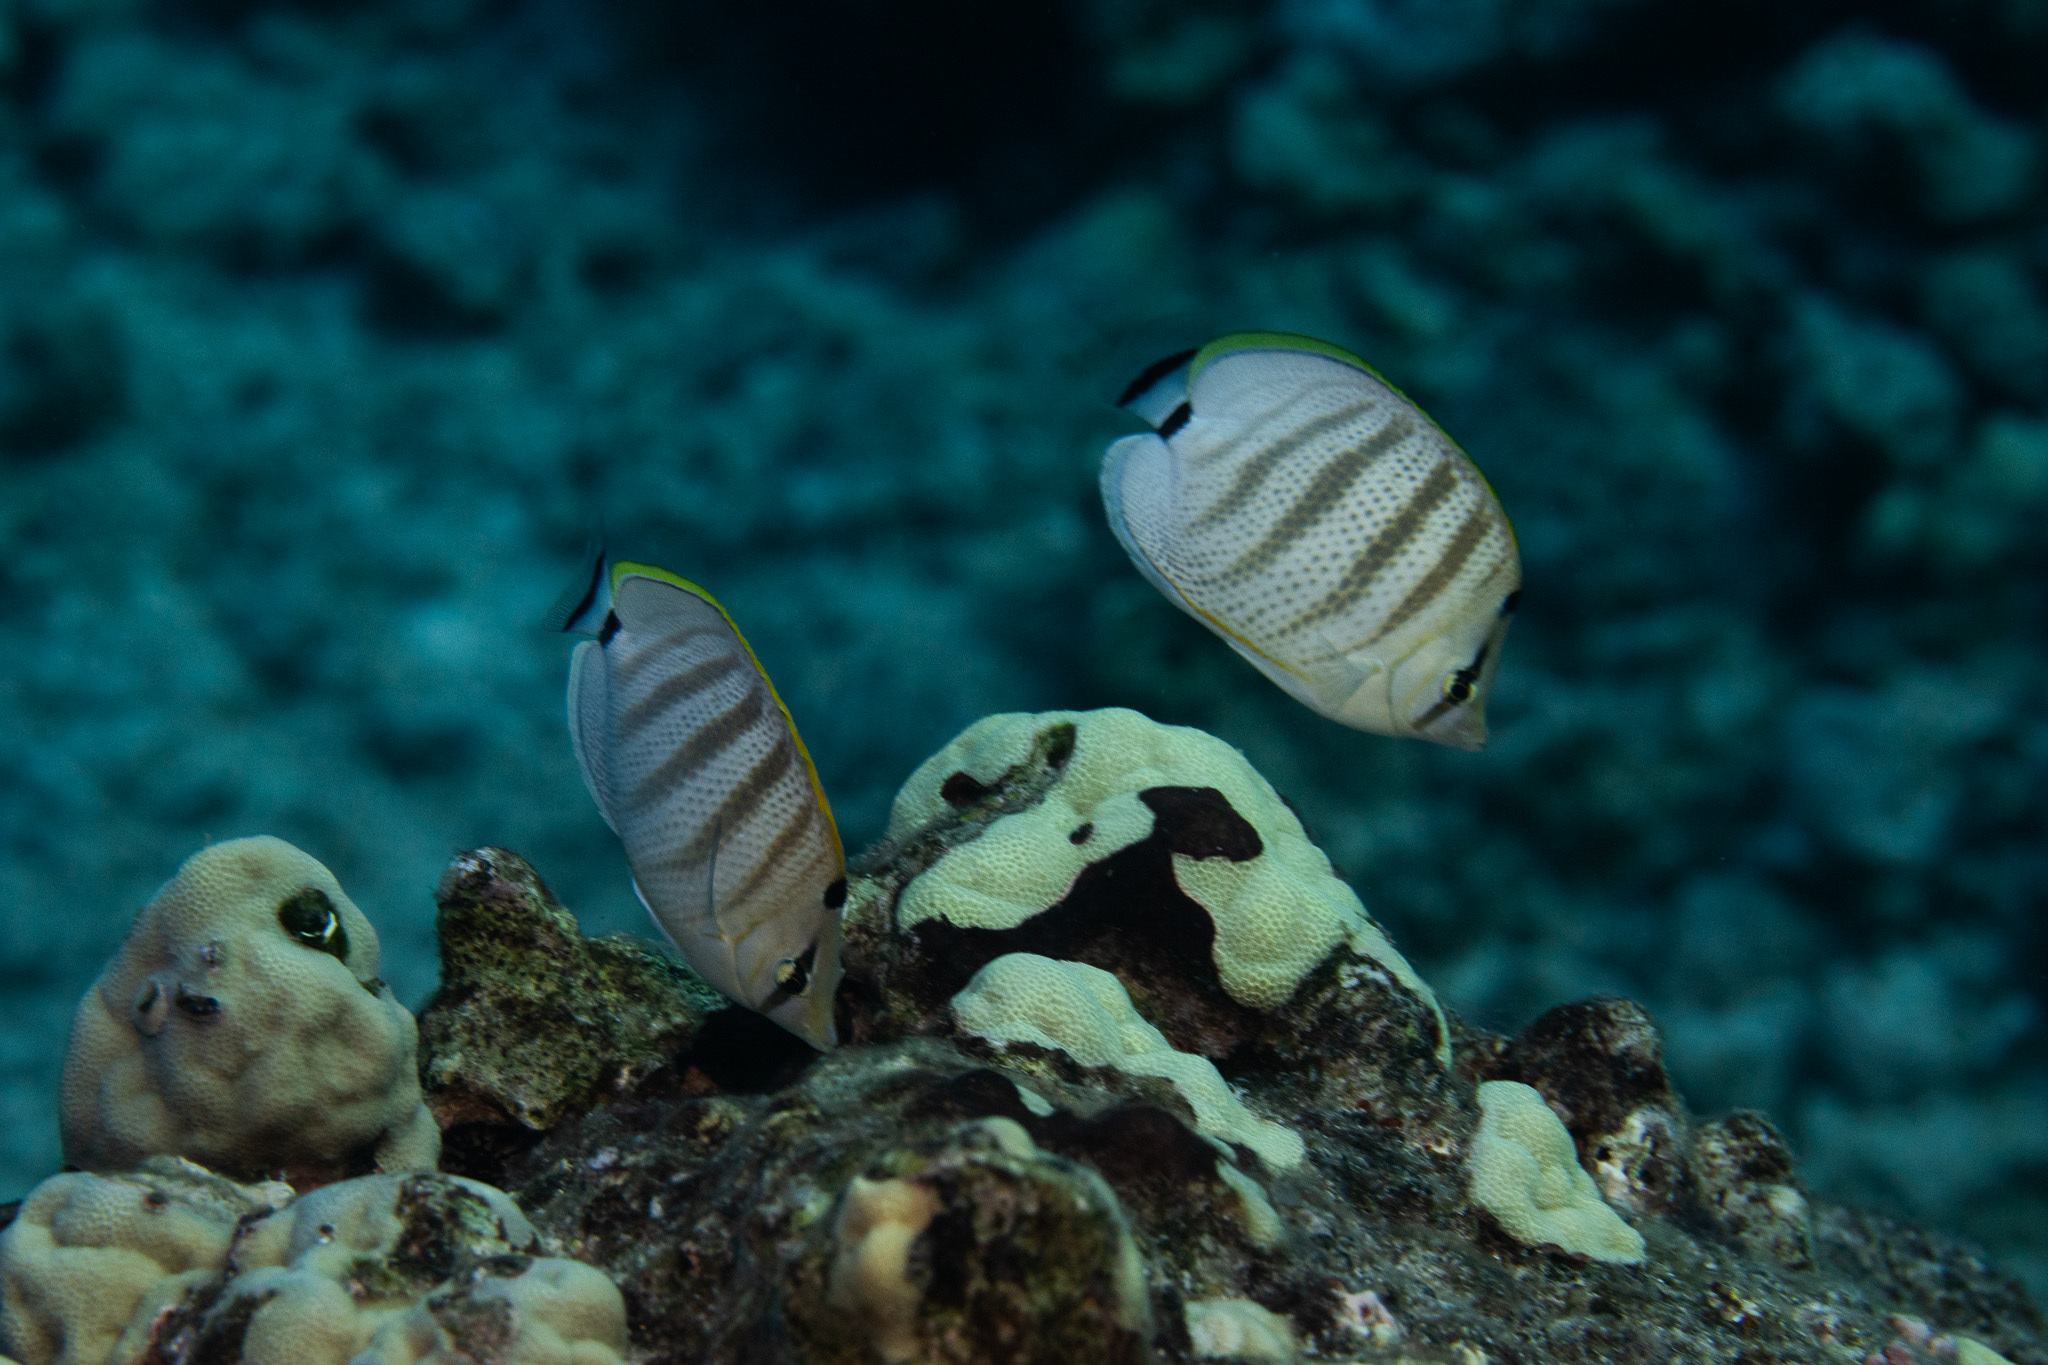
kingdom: Animalia
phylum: Chordata
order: Perciformes
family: Chaetodontidae
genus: Chaetodon
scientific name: Chaetodon multicinctus
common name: Multiband butterflyfish
